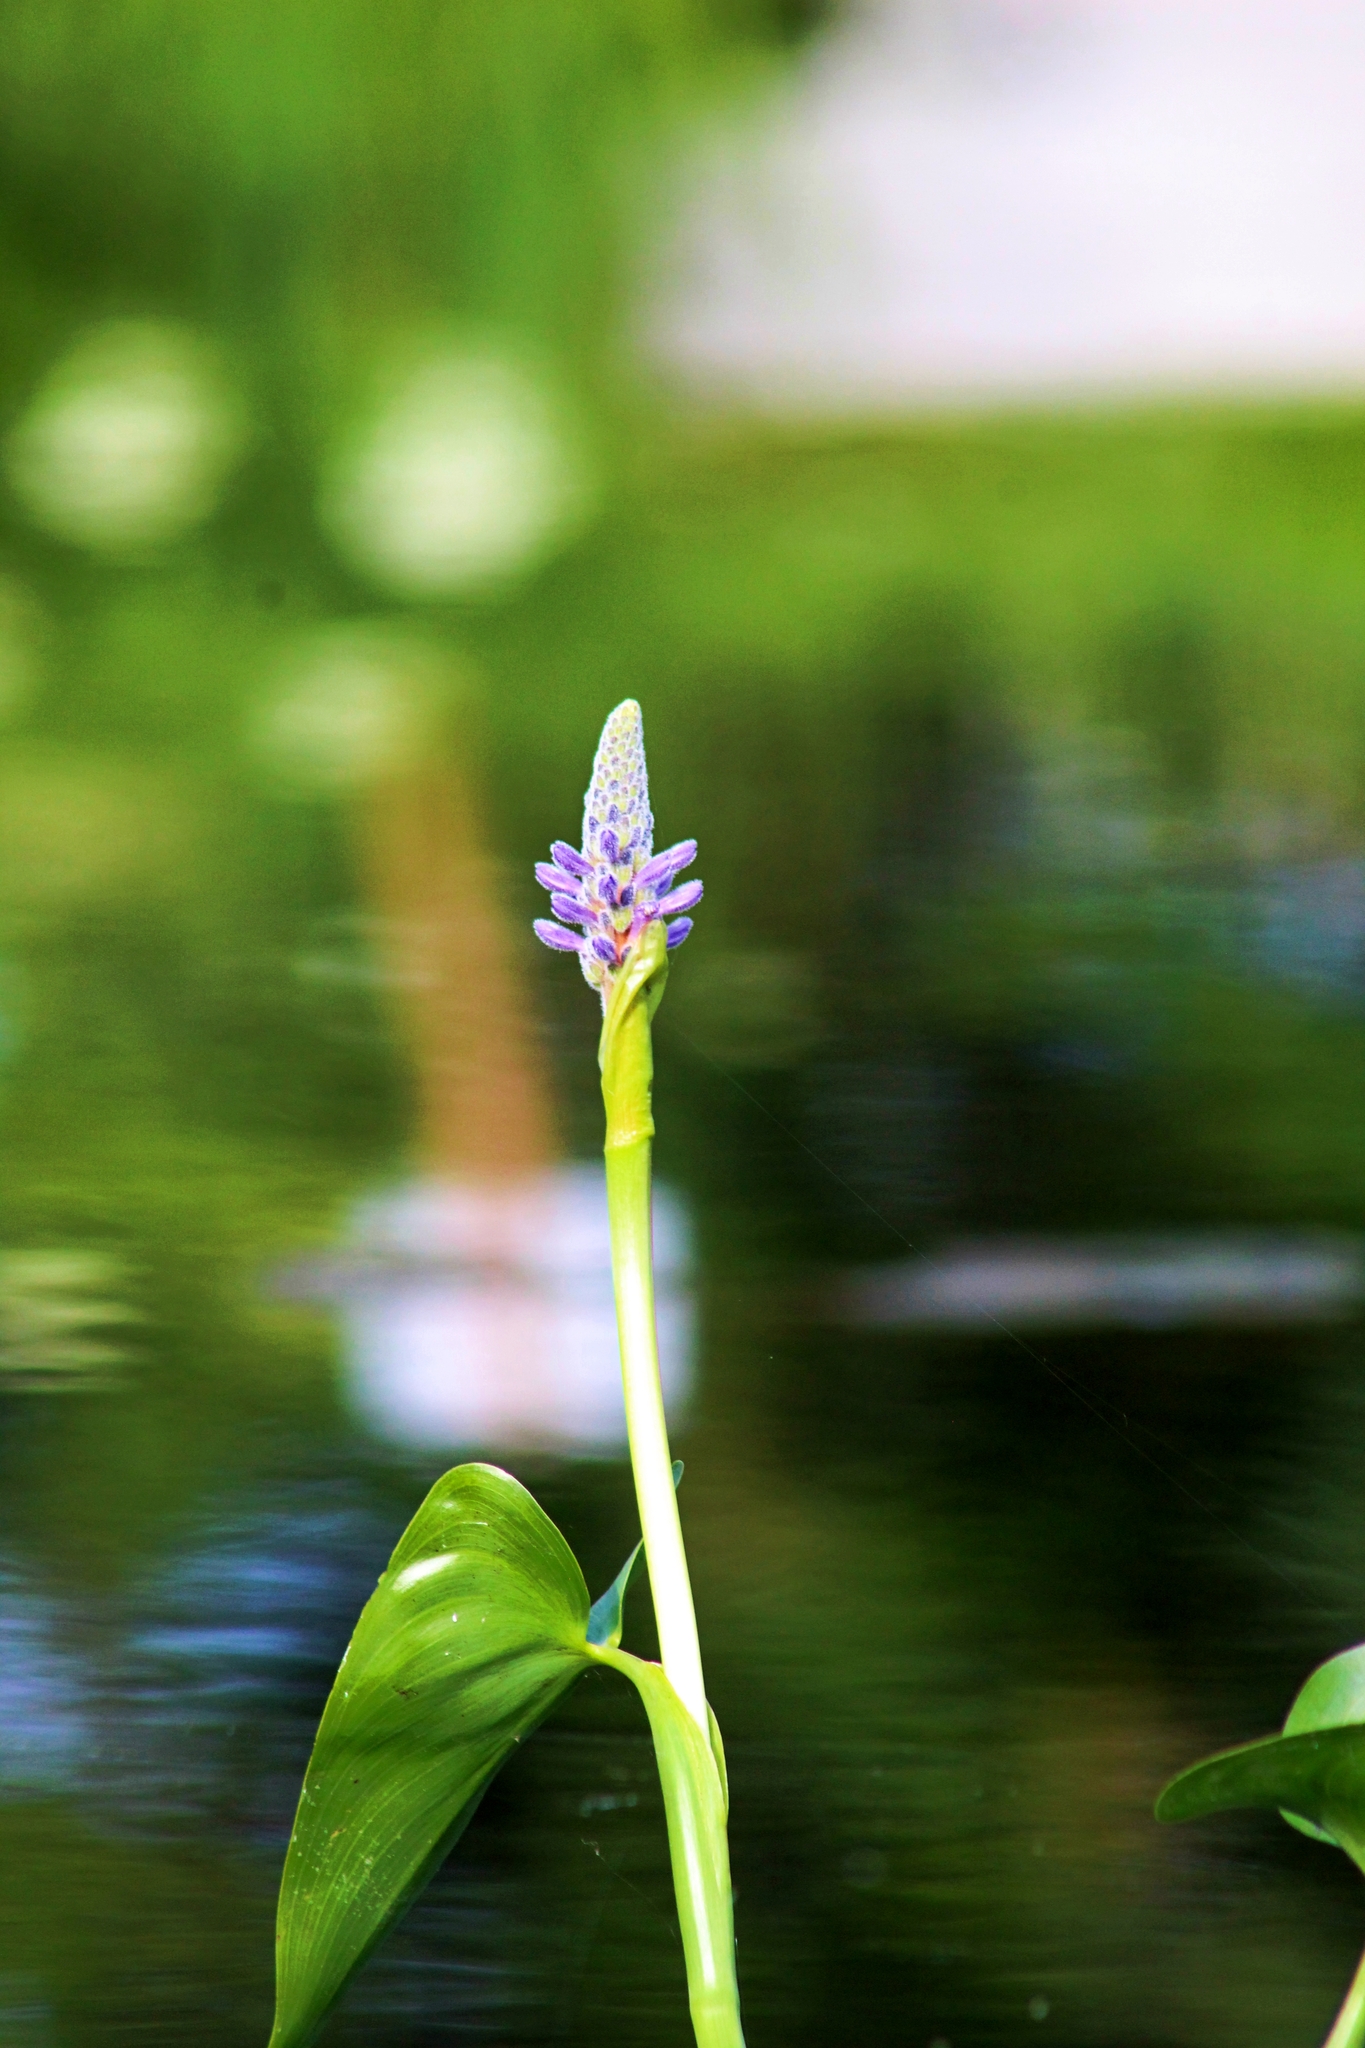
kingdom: Plantae
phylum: Tracheophyta
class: Liliopsida
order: Commelinales
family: Pontederiaceae
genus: Pontederia
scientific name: Pontederia cordata
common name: Pickerelweed
